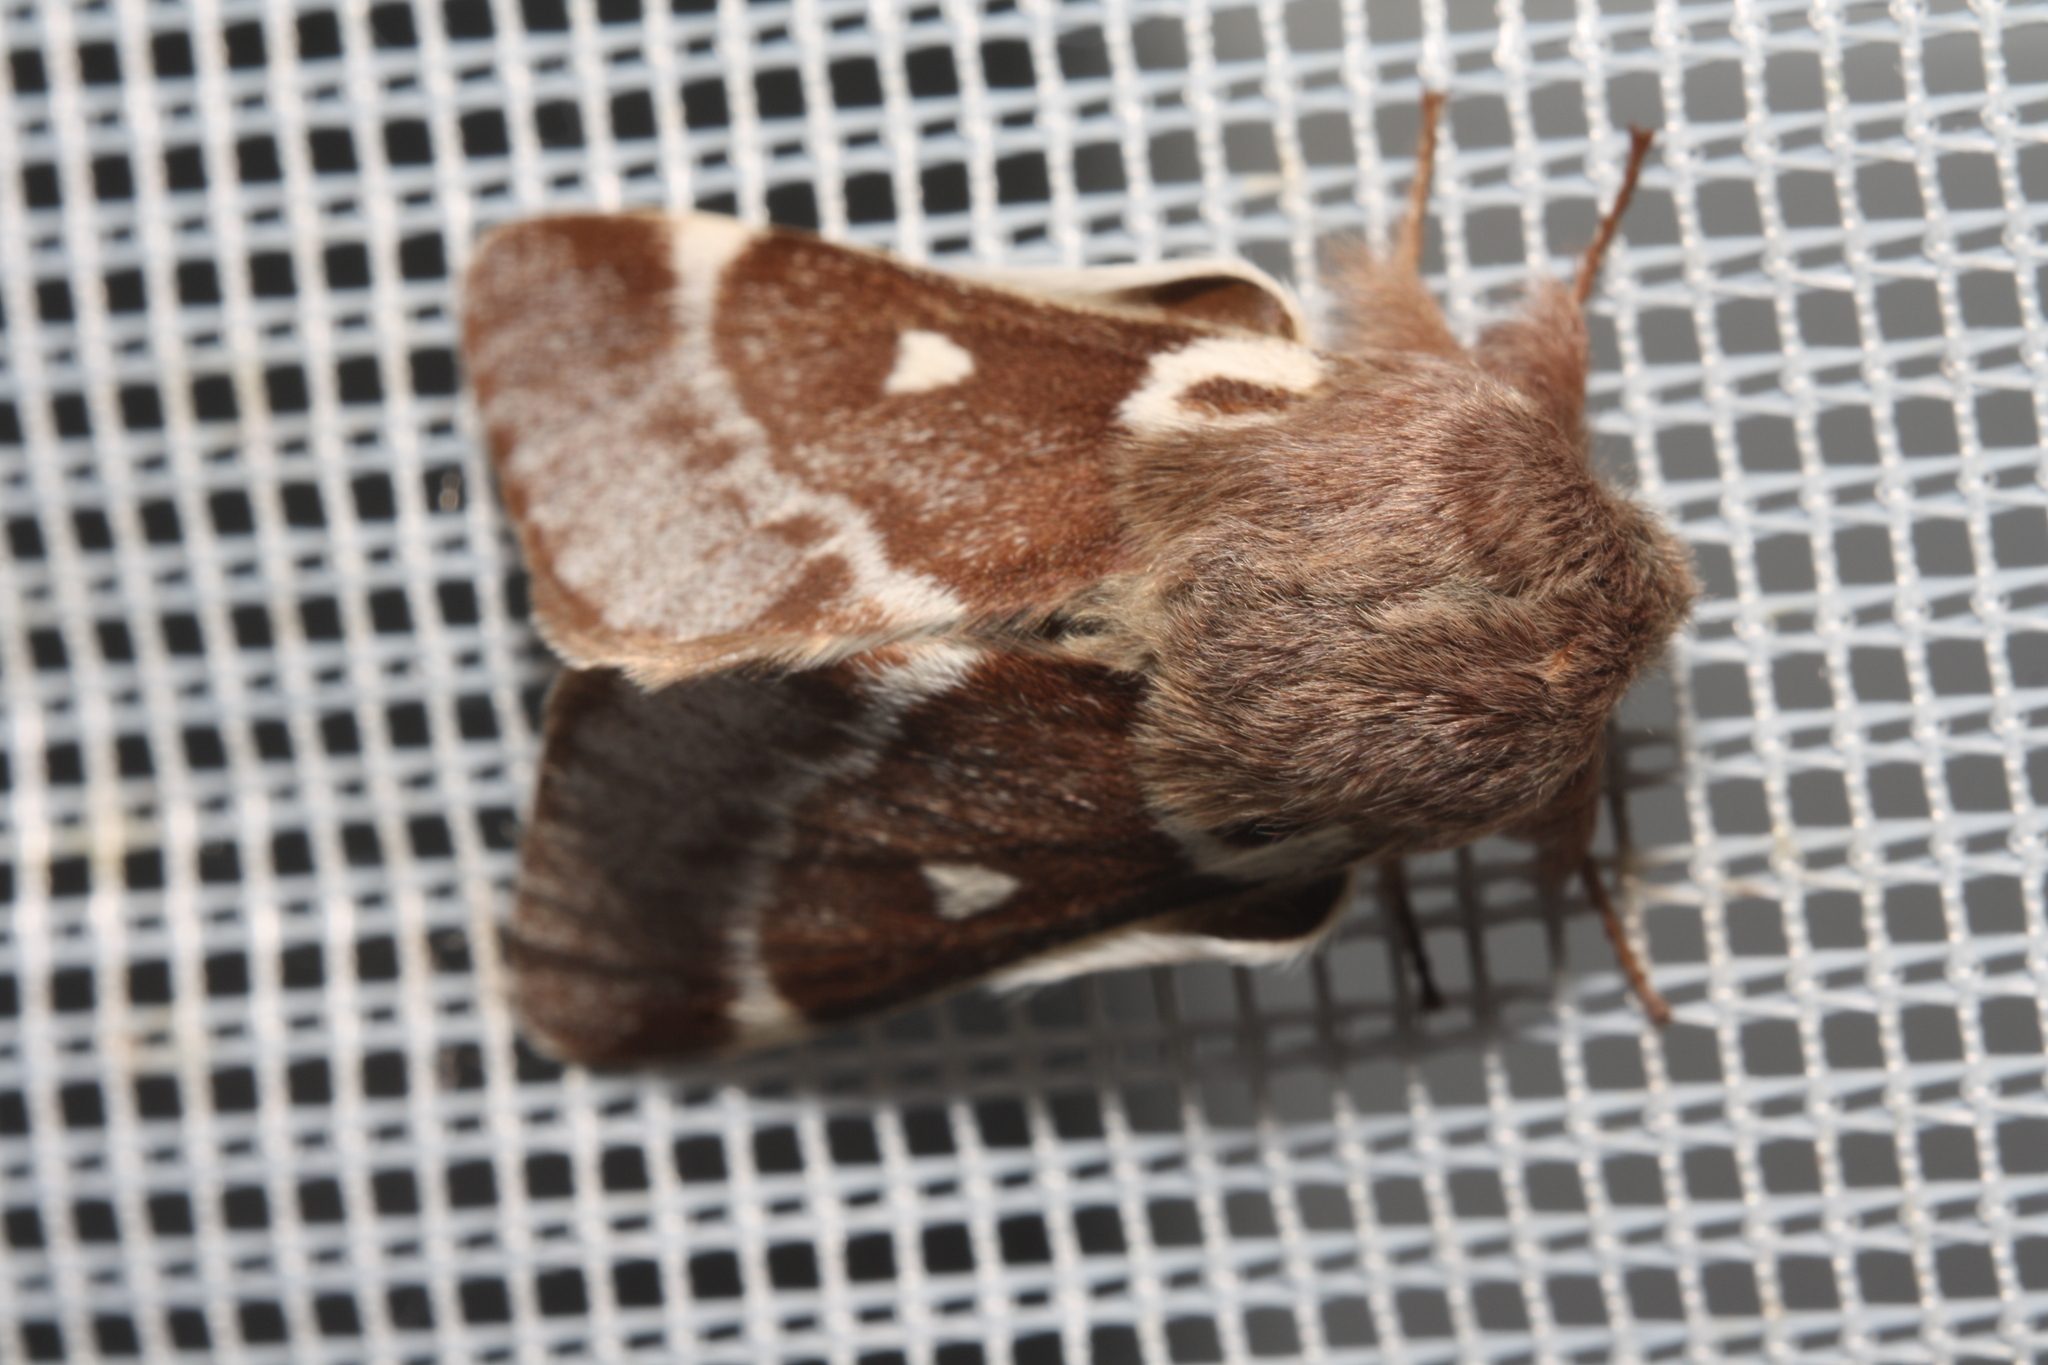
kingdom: Animalia
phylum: Arthropoda
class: Insecta
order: Lepidoptera
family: Lasiocampidae
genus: Eriogaster
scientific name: Eriogaster lanestris
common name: Small eggar
